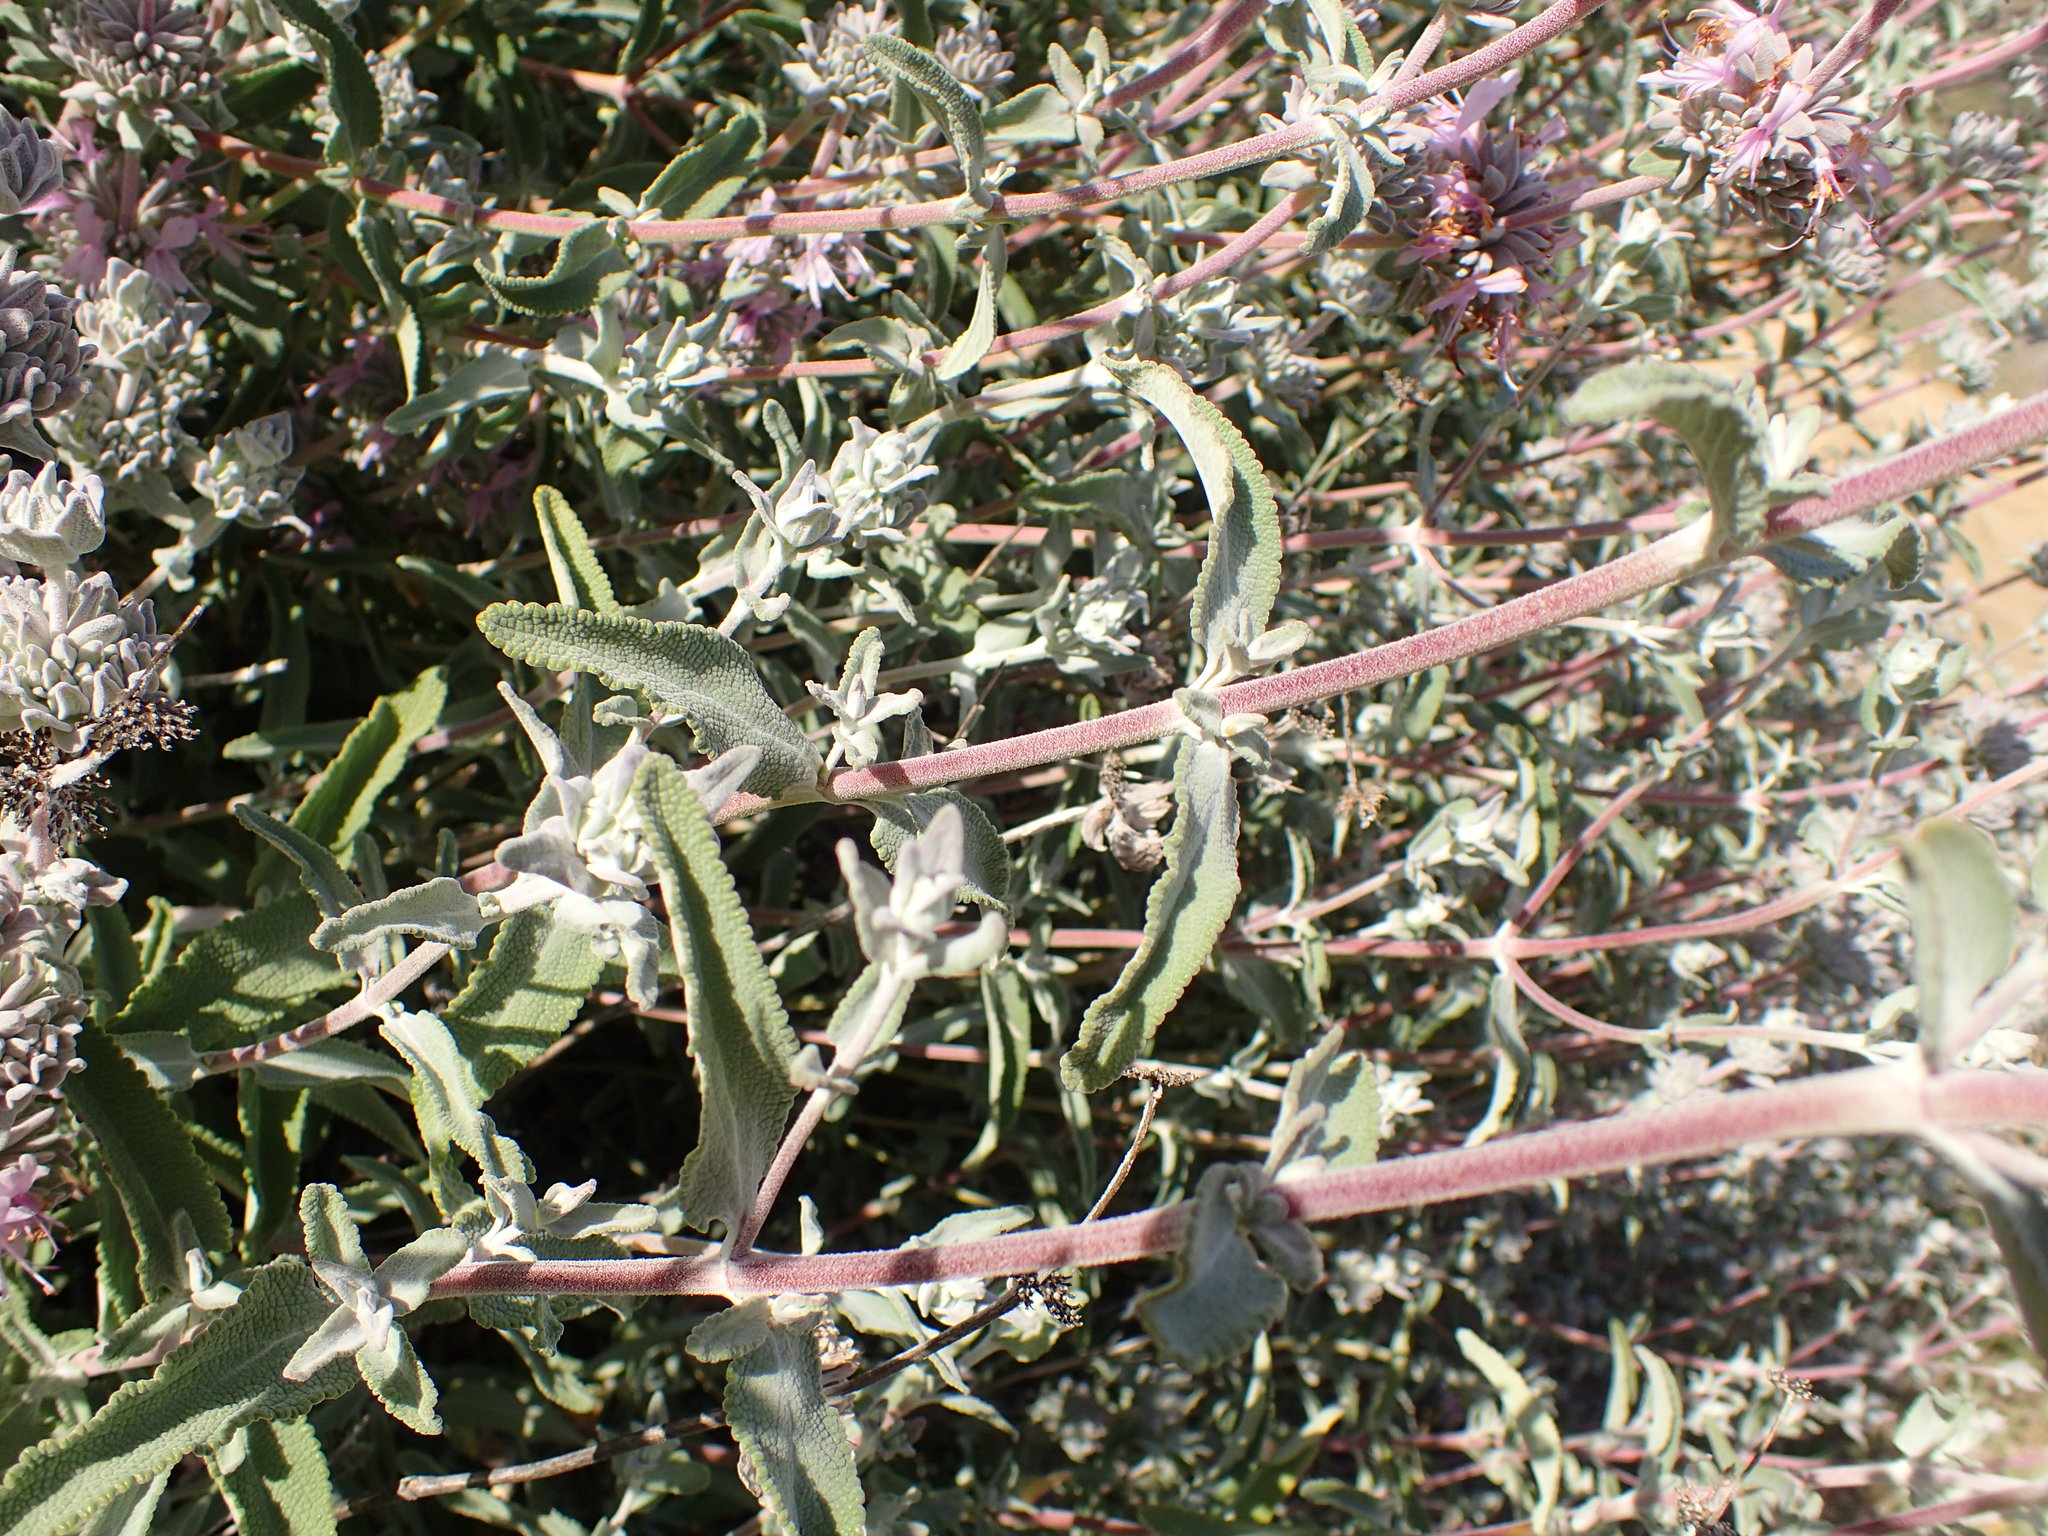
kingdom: Plantae
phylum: Tracheophyta
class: Magnoliopsida
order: Lamiales
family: Lamiaceae
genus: Salvia
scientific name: Salvia leucophylla
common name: Purple sage
